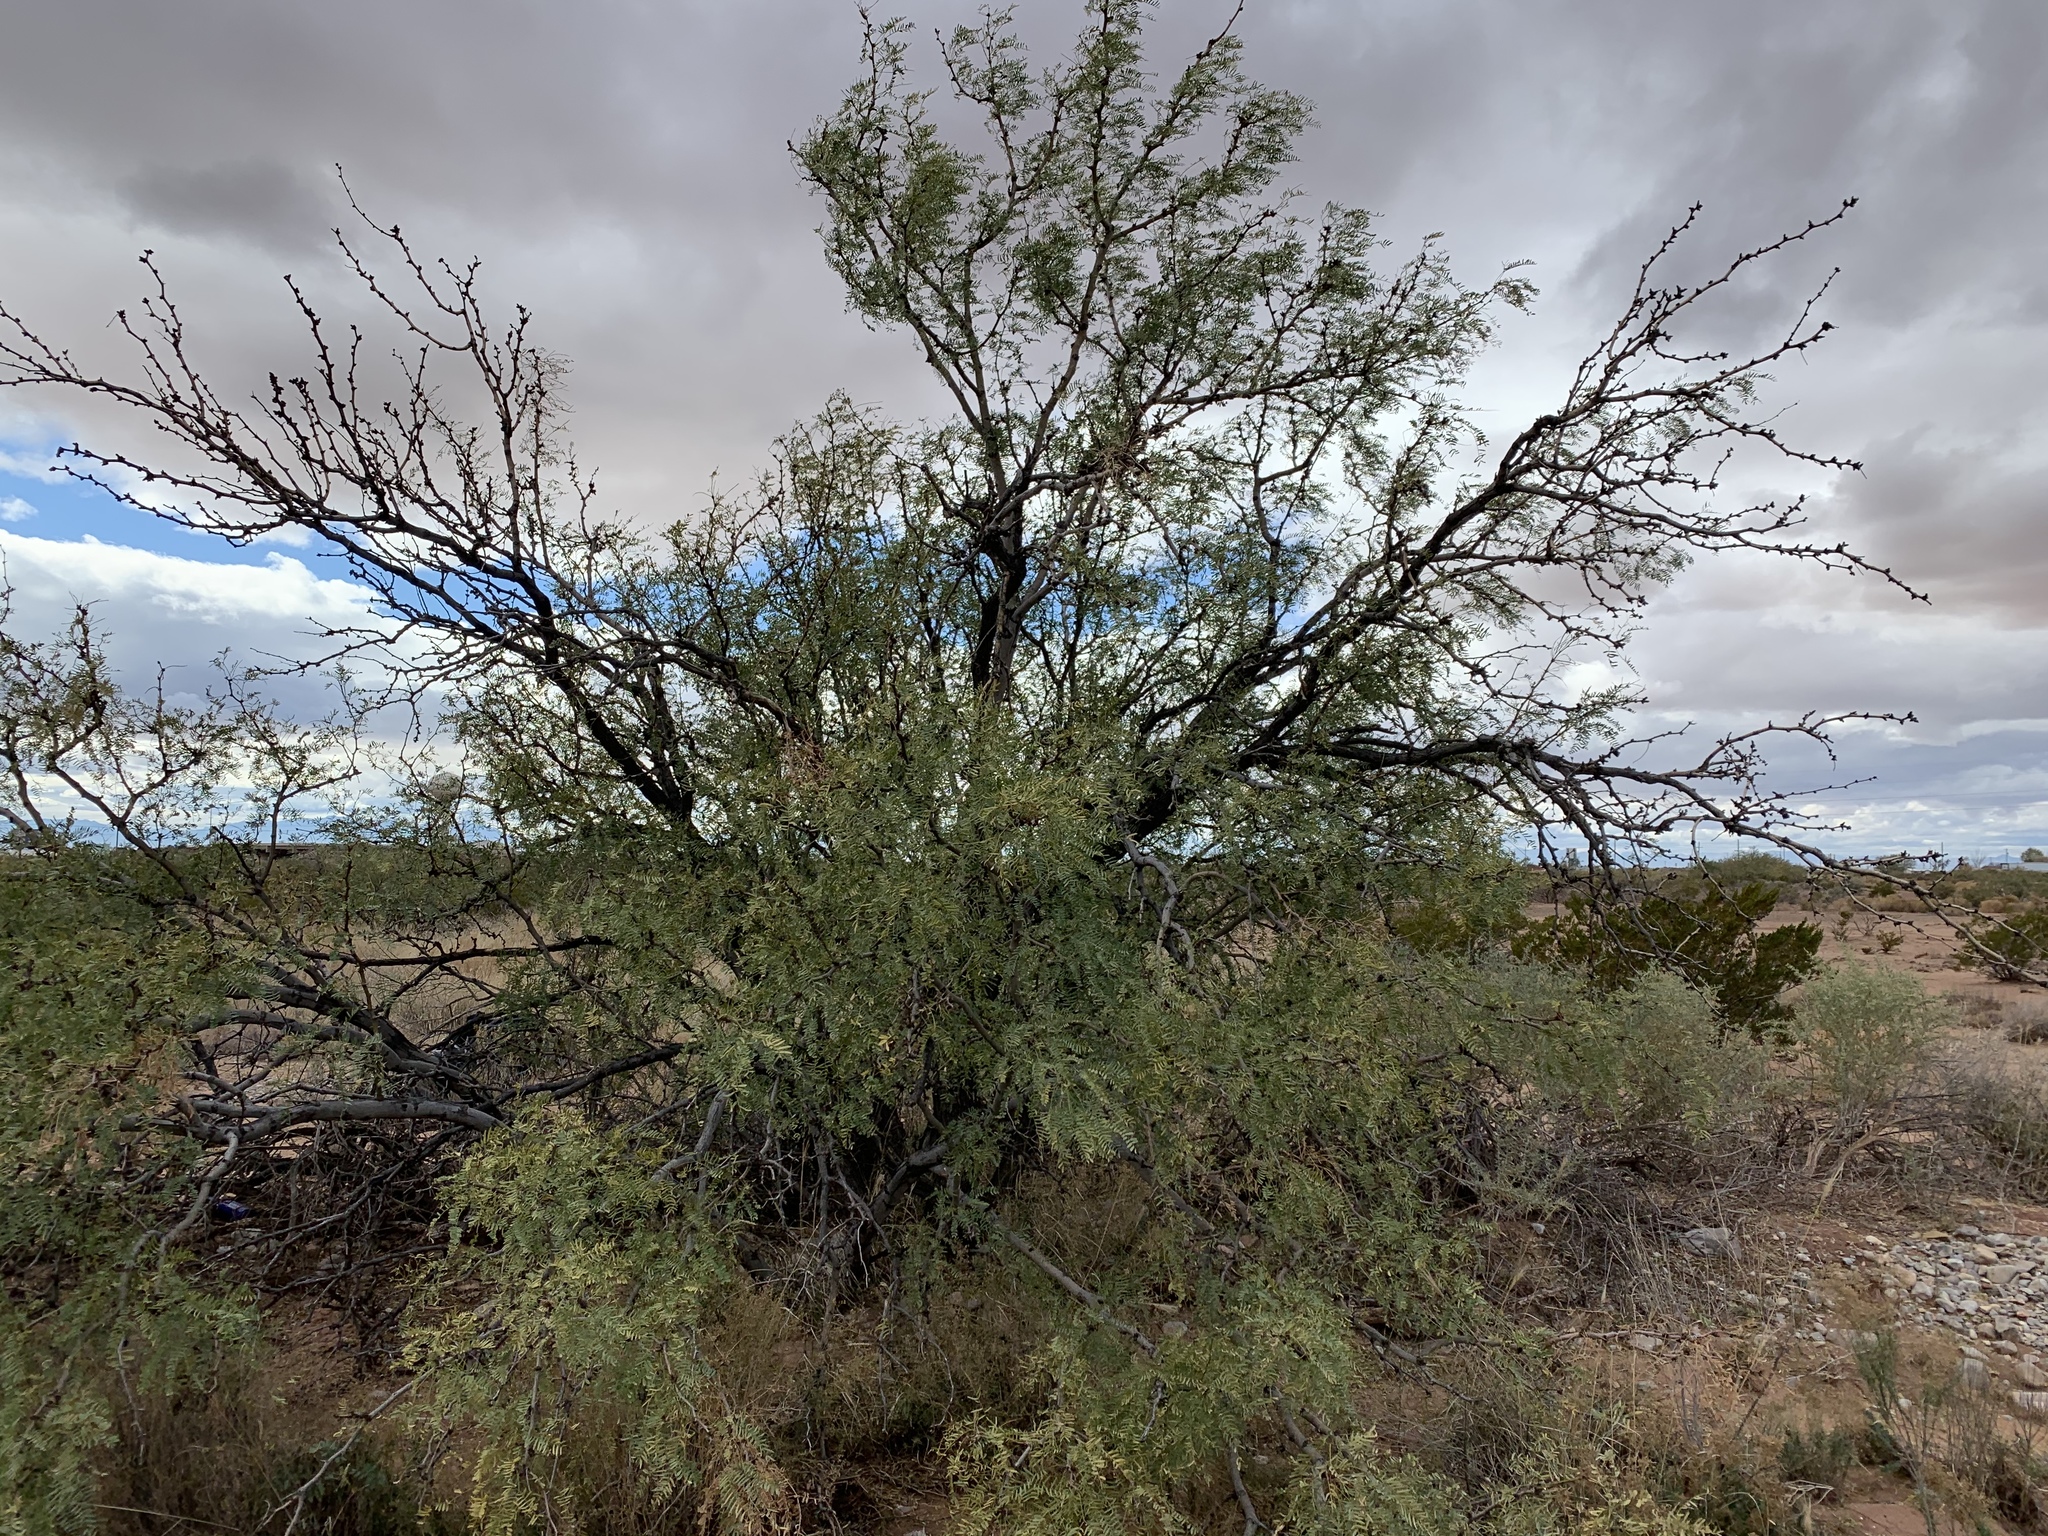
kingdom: Plantae
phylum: Tracheophyta
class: Magnoliopsida
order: Fabales
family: Fabaceae
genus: Prosopis
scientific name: Prosopis glandulosa
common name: Honey mesquite
